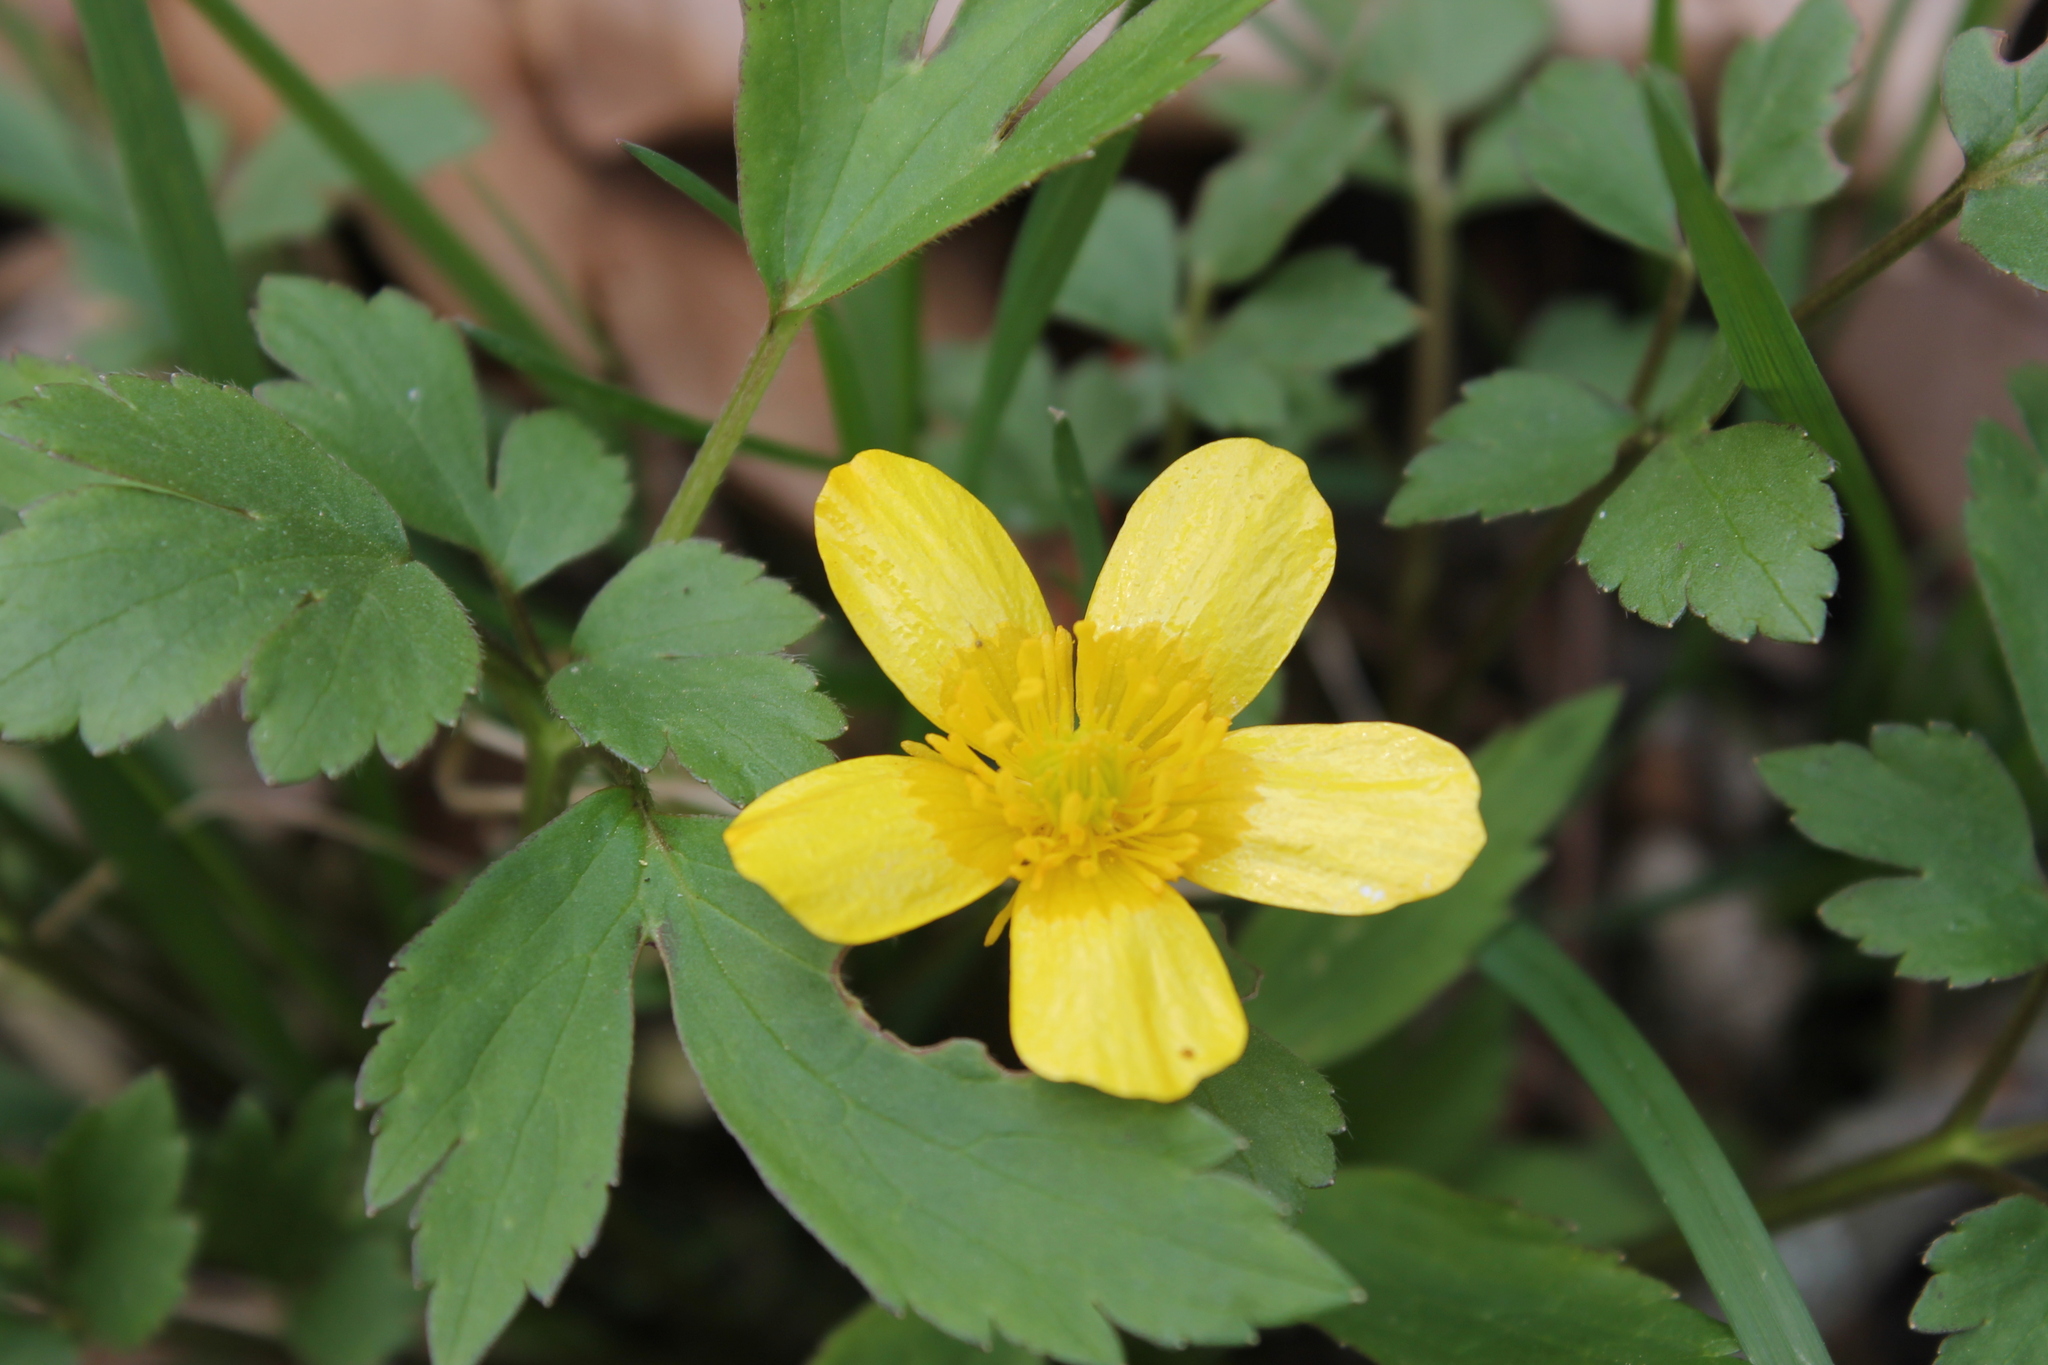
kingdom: Plantae
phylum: Tracheophyta
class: Magnoliopsida
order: Ranunculales
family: Ranunculaceae
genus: Ranunculus
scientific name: Ranunculus hispidus
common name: Bristly buttercup
